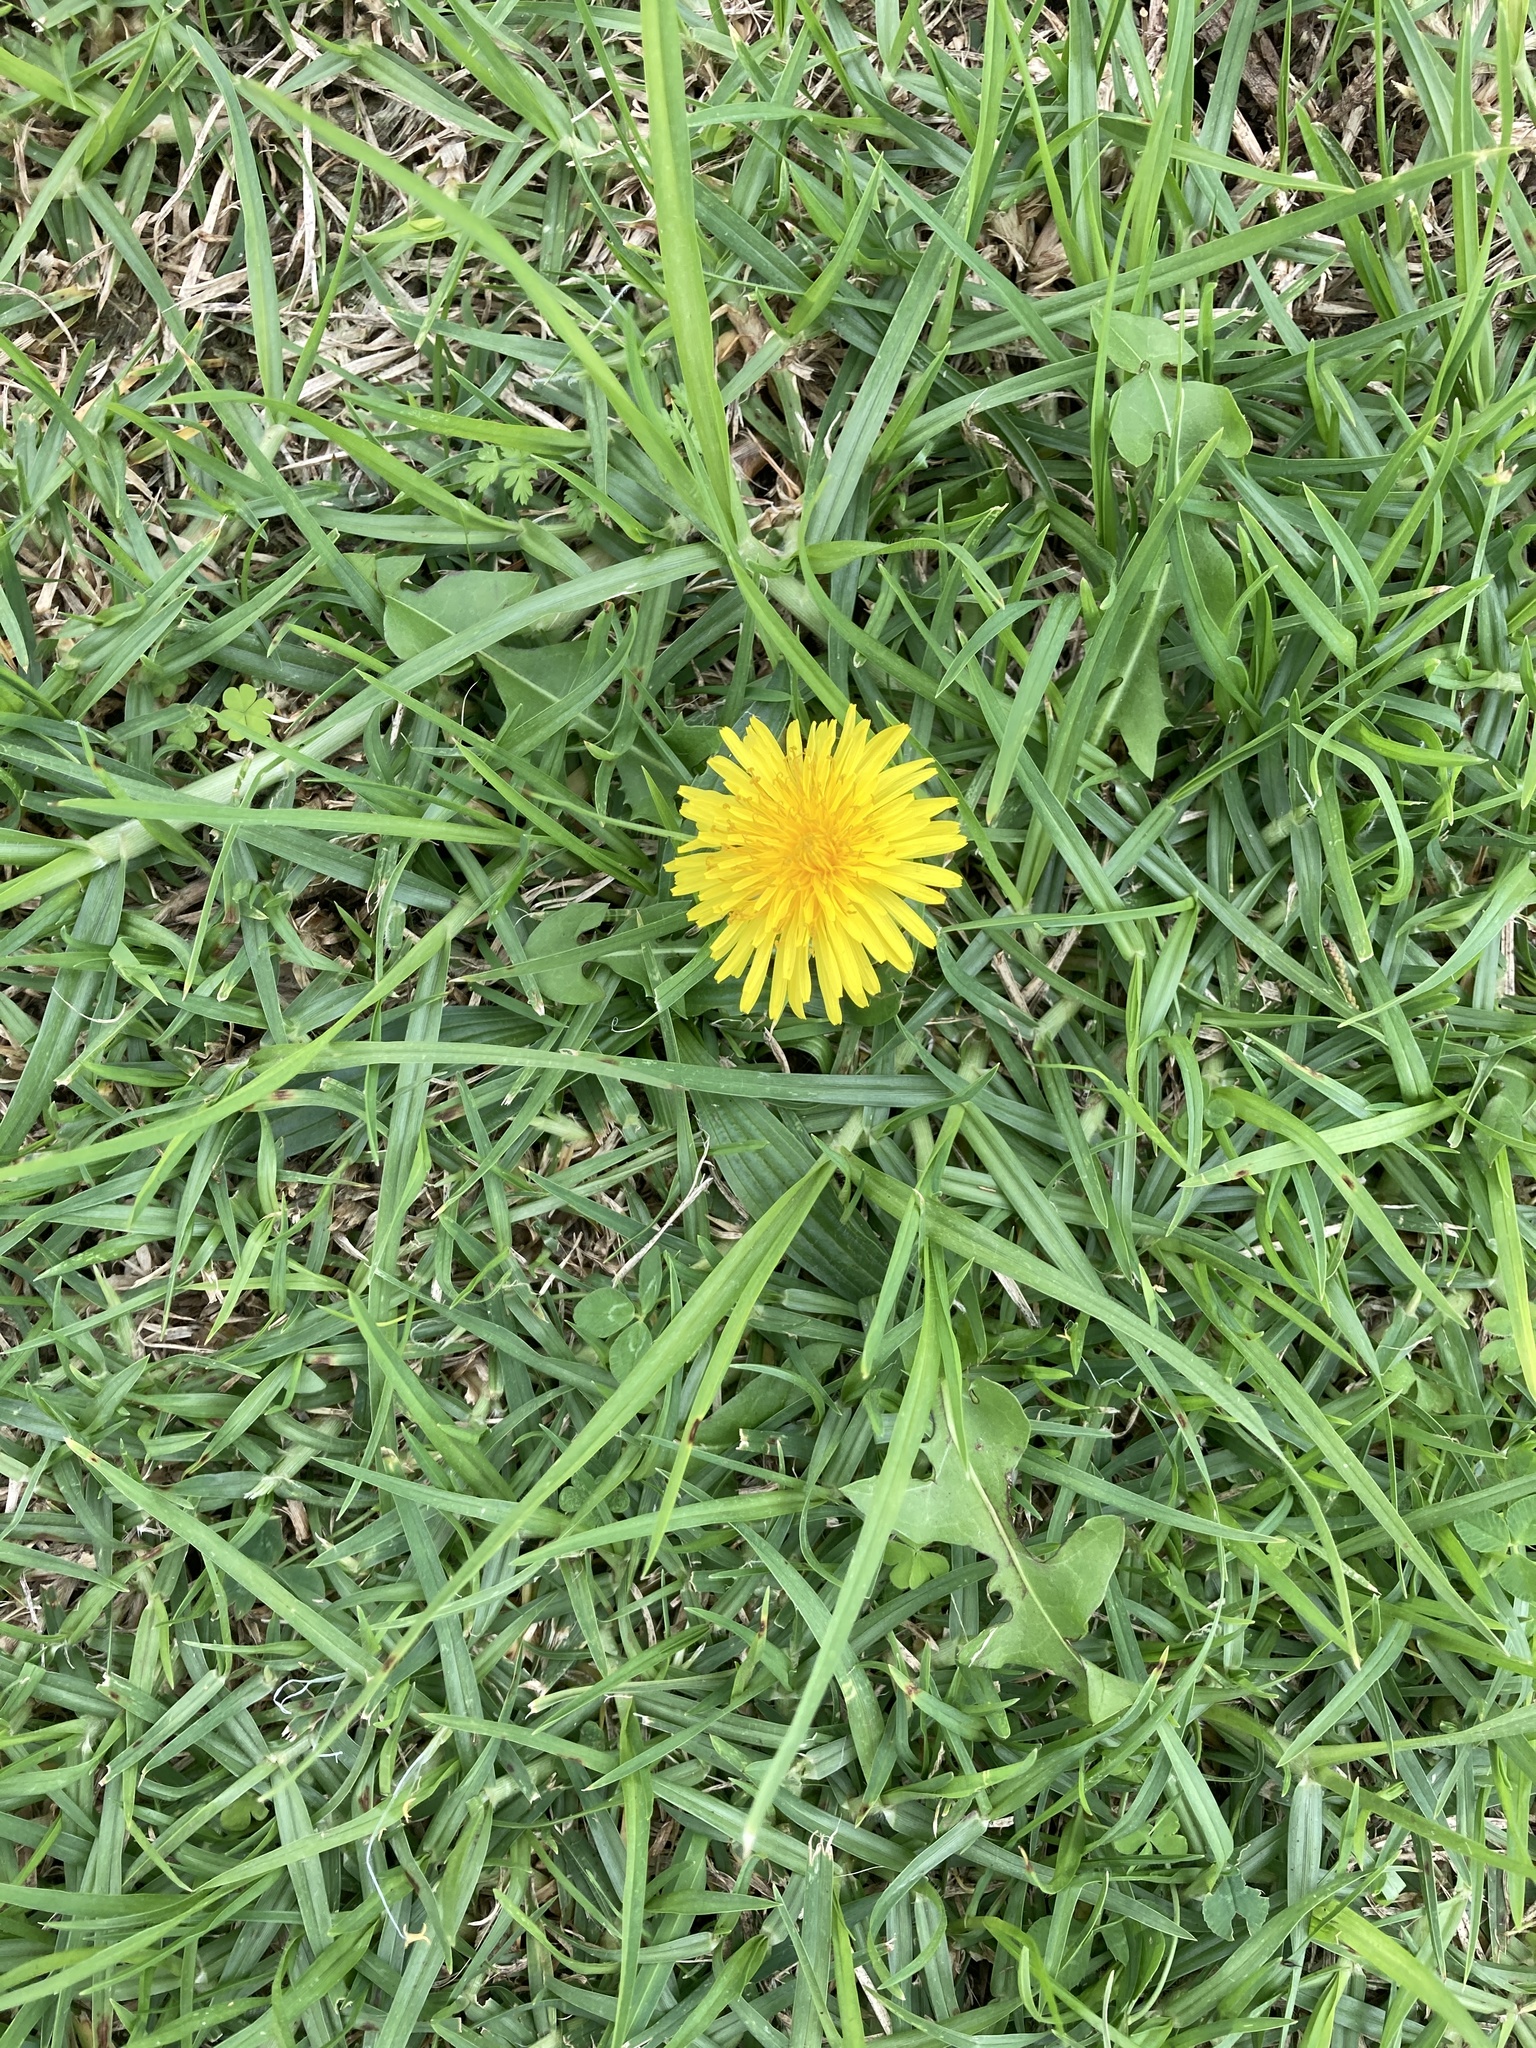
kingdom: Plantae
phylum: Tracheophyta
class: Magnoliopsida
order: Asterales
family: Asteraceae
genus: Taraxacum
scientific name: Taraxacum officinale
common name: Common dandelion
